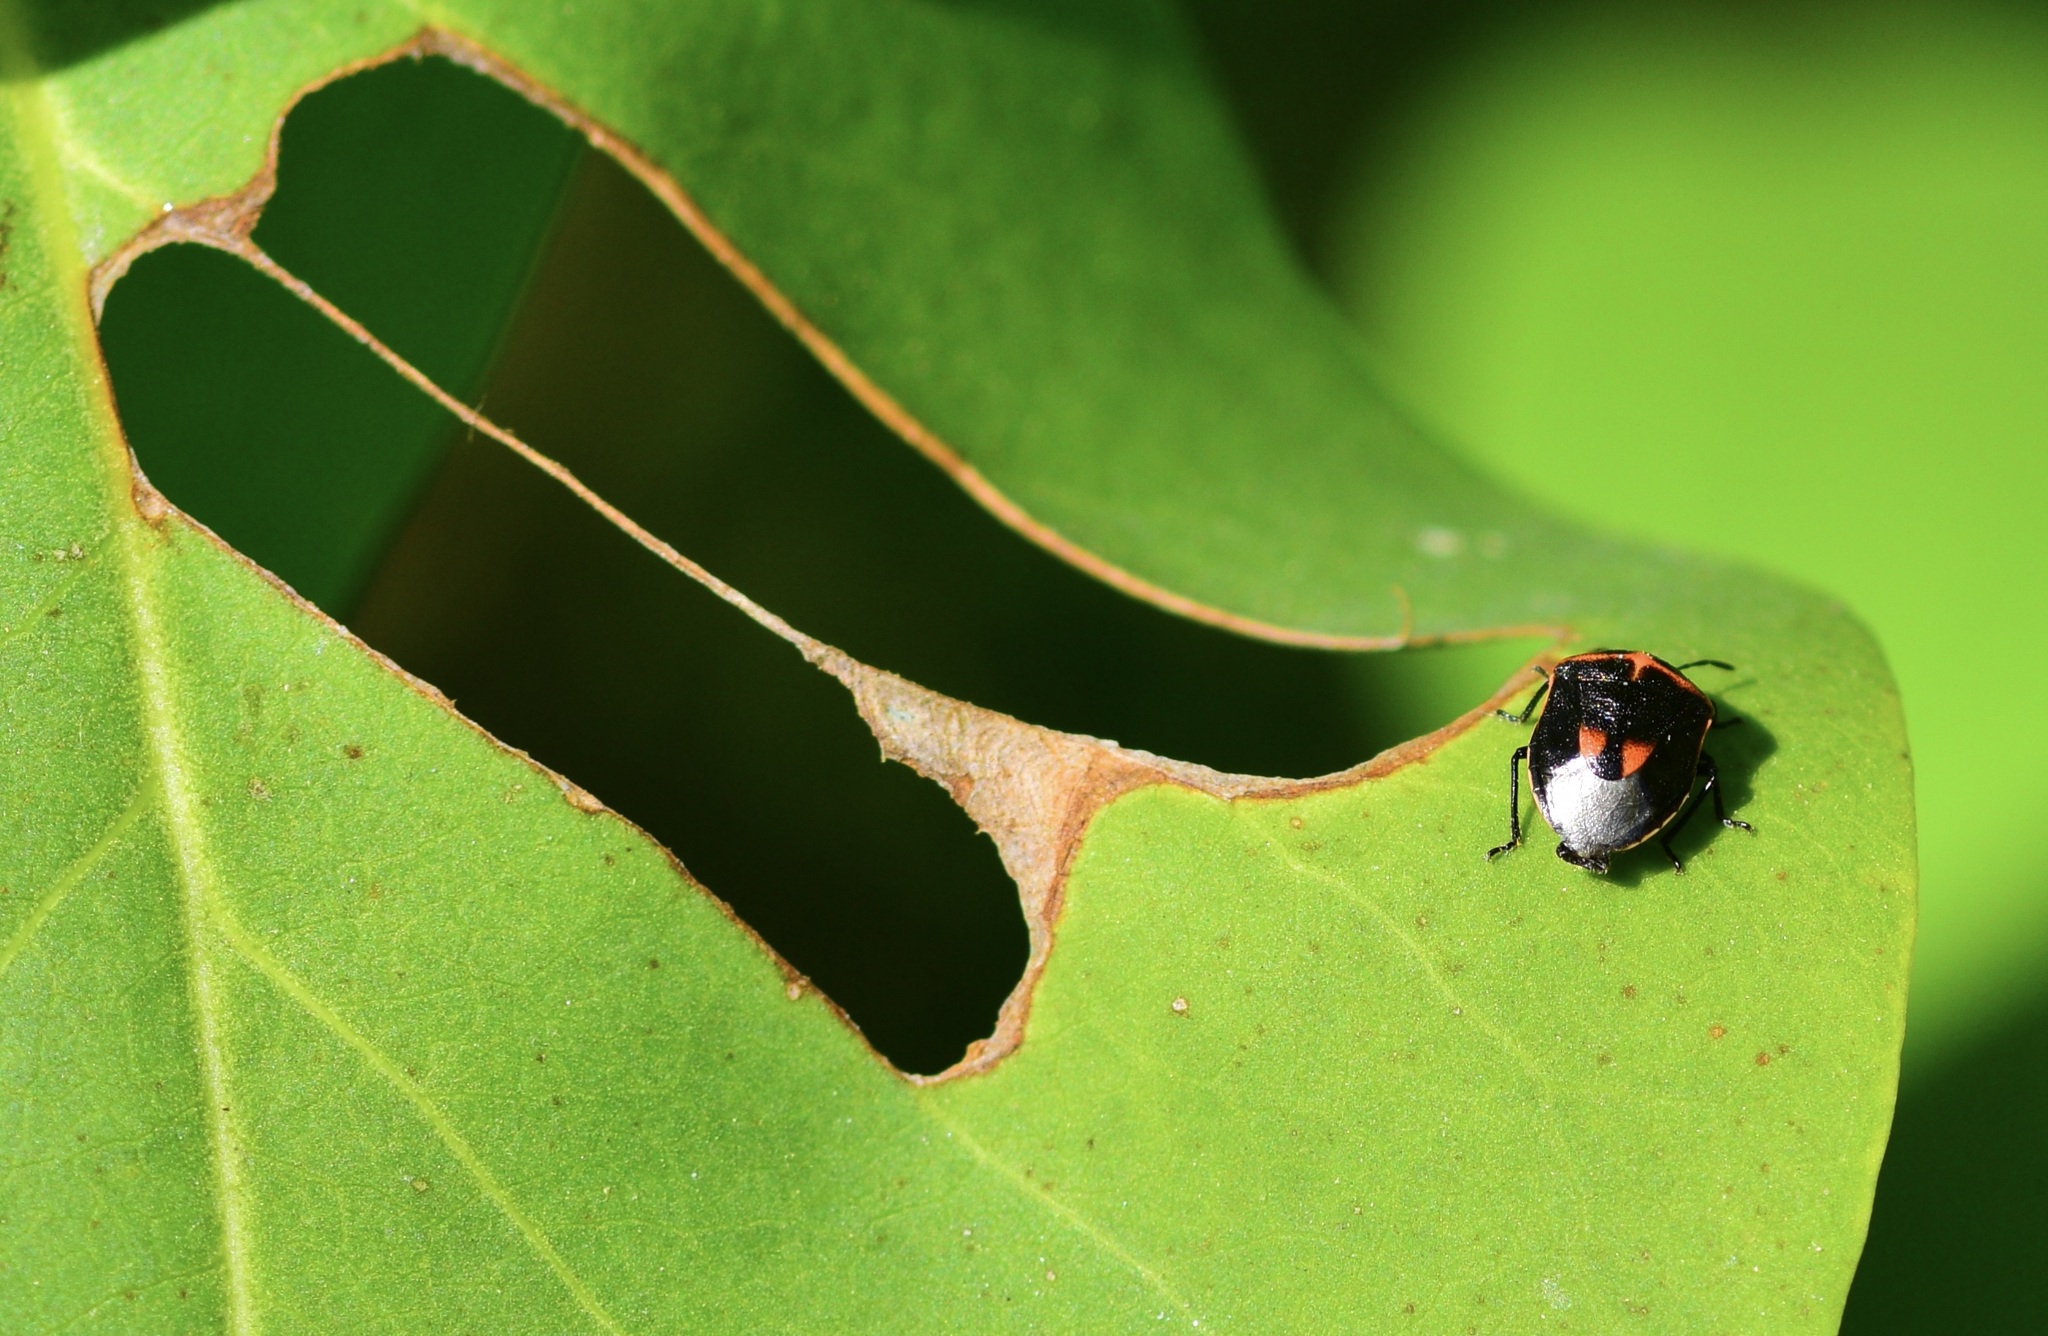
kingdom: Animalia
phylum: Arthropoda
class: Insecta
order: Hemiptera
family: Pentatomidae
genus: Cosmopepla
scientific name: Cosmopepla lintneriana
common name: Twice-stabbed stink bug
